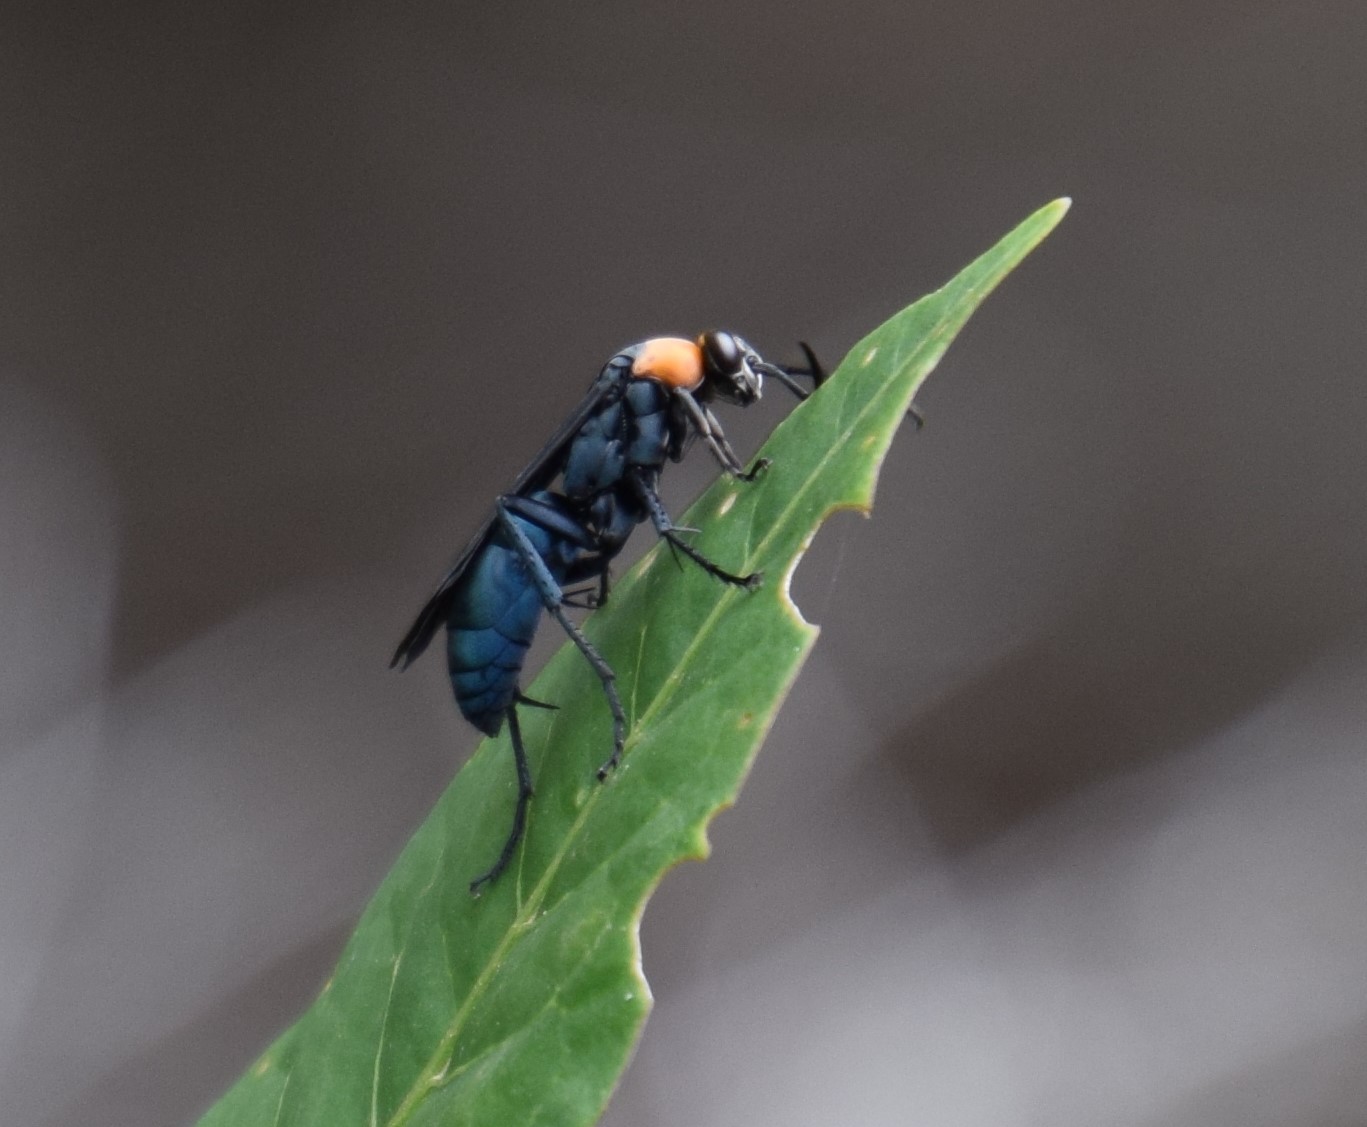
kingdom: Animalia
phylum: Arthropoda
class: Insecta
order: Hymenoptera
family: Pompilidae
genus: Ferreola
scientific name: Ferreola handschini
